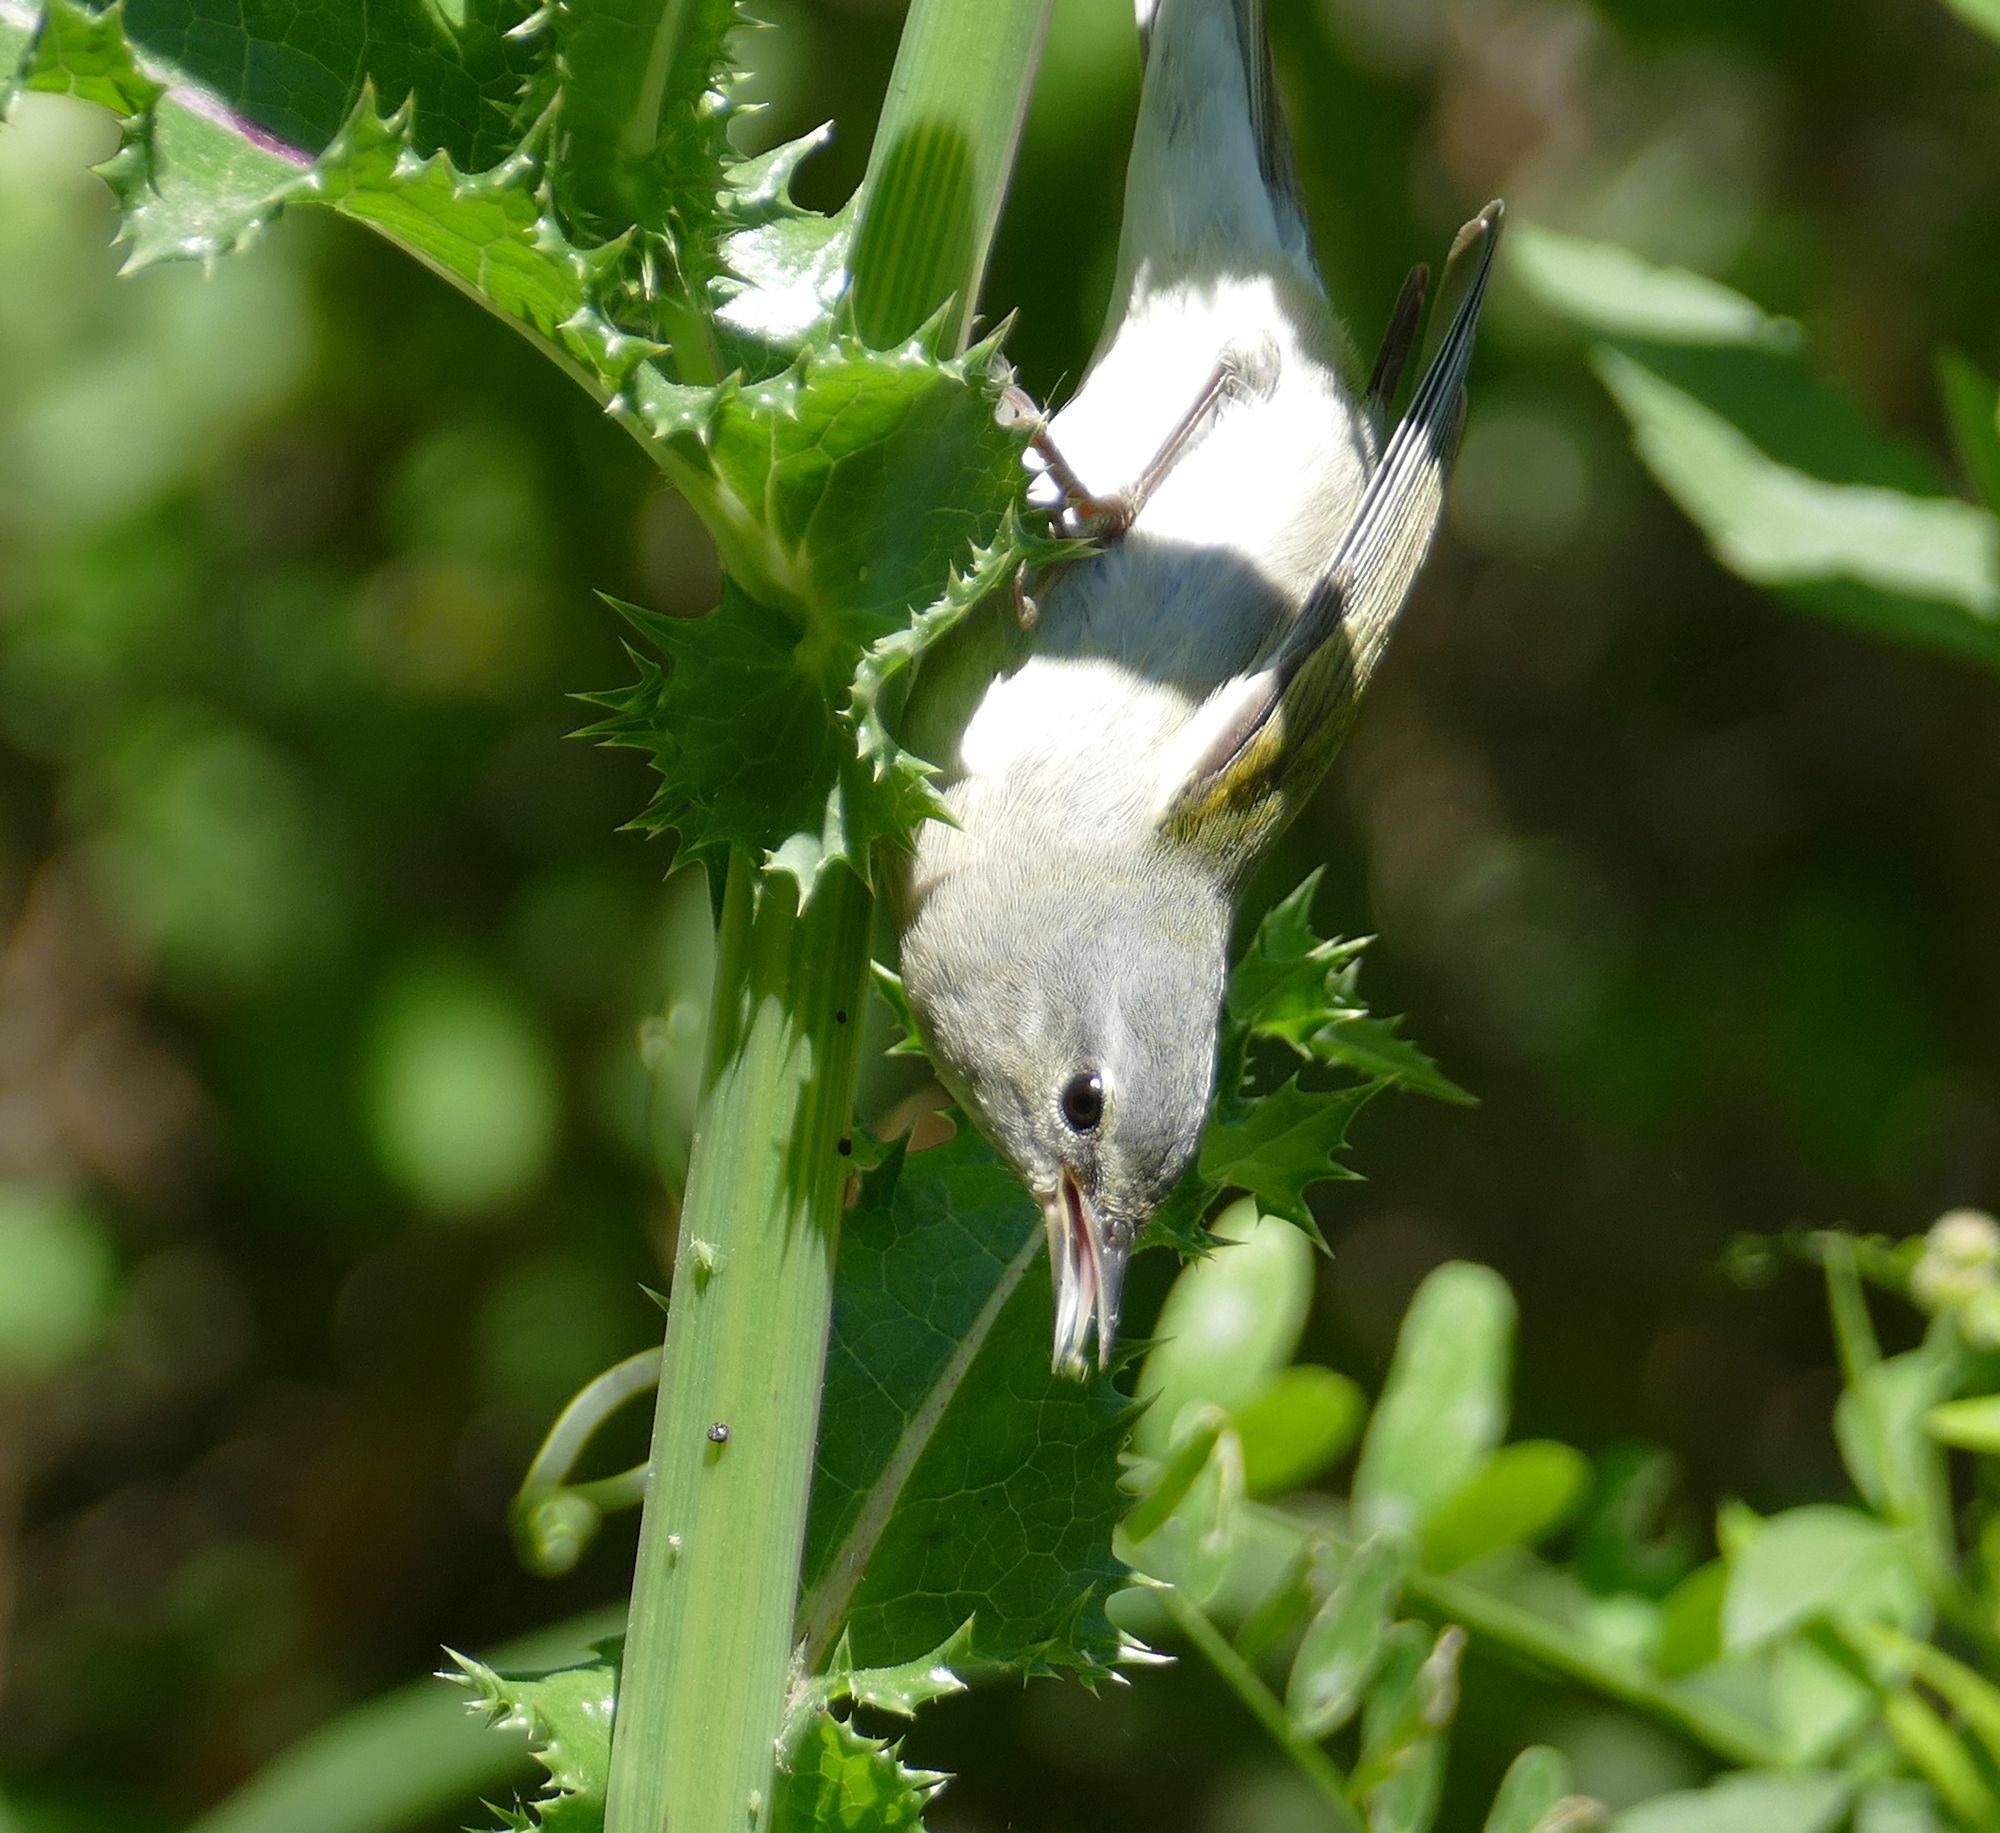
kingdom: Animalia
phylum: Chordata
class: Aves
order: Passeriformes
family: Parulidae
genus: Leiothlypis
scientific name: Leiothlypis peregrina
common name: Tennessee warbler
